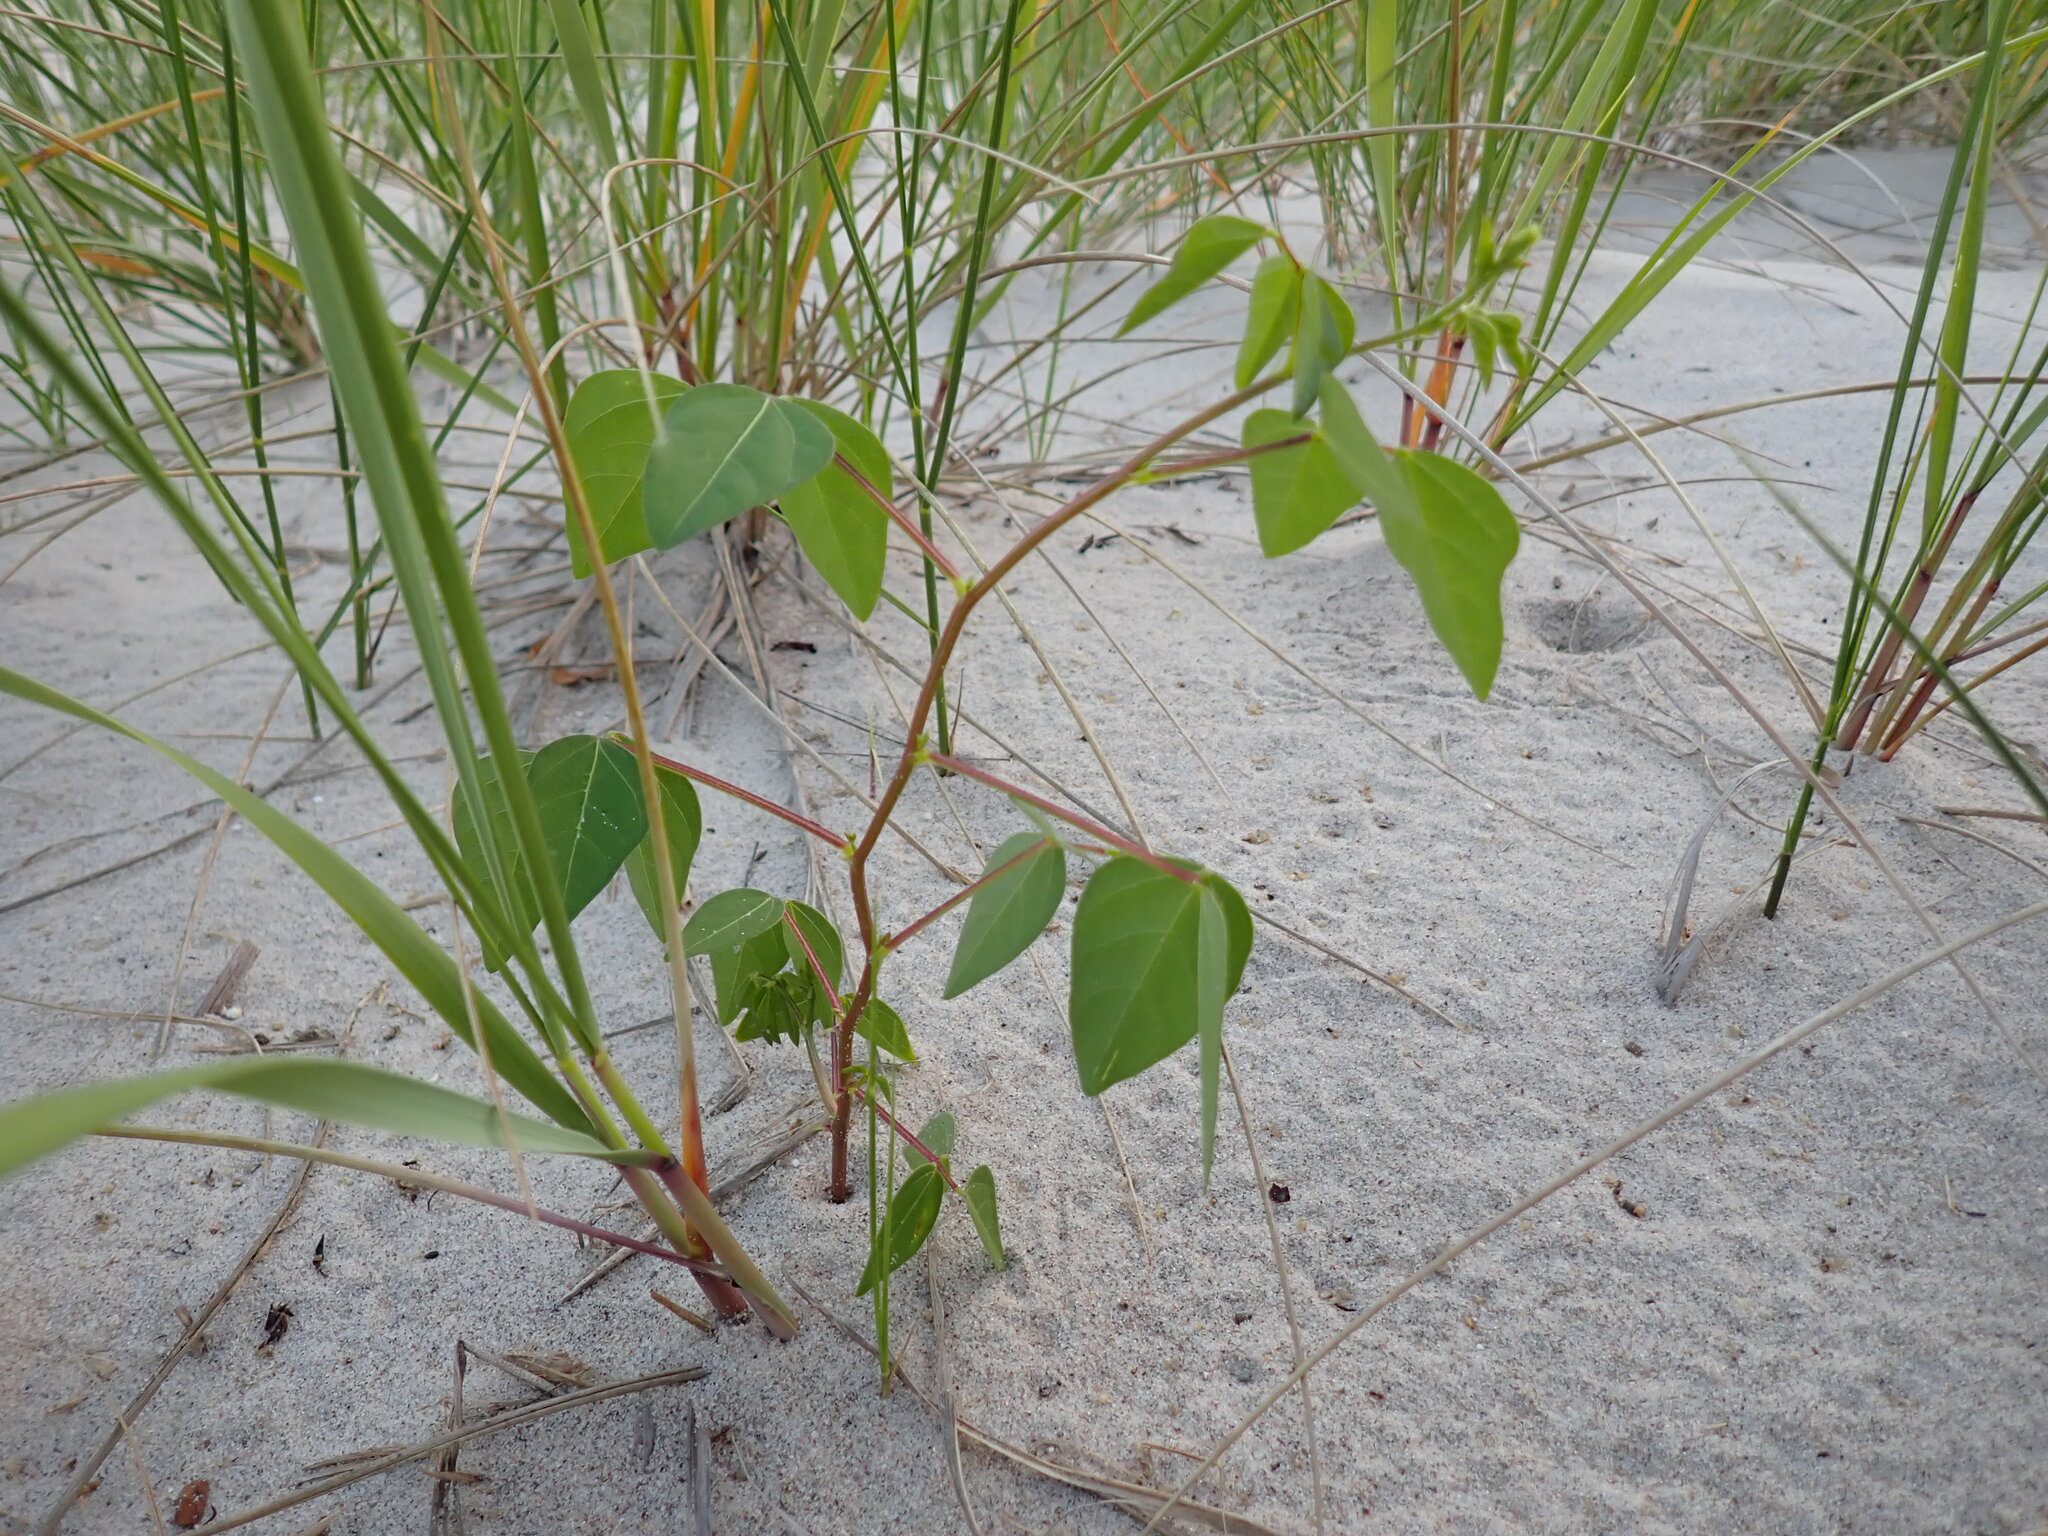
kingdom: Plantae
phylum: Tracheophyta
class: Magnoliopsida
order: Fabales
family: Fabaceae
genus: Strophostyles
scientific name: Strophostyles helvola
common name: Trailing wild bean
